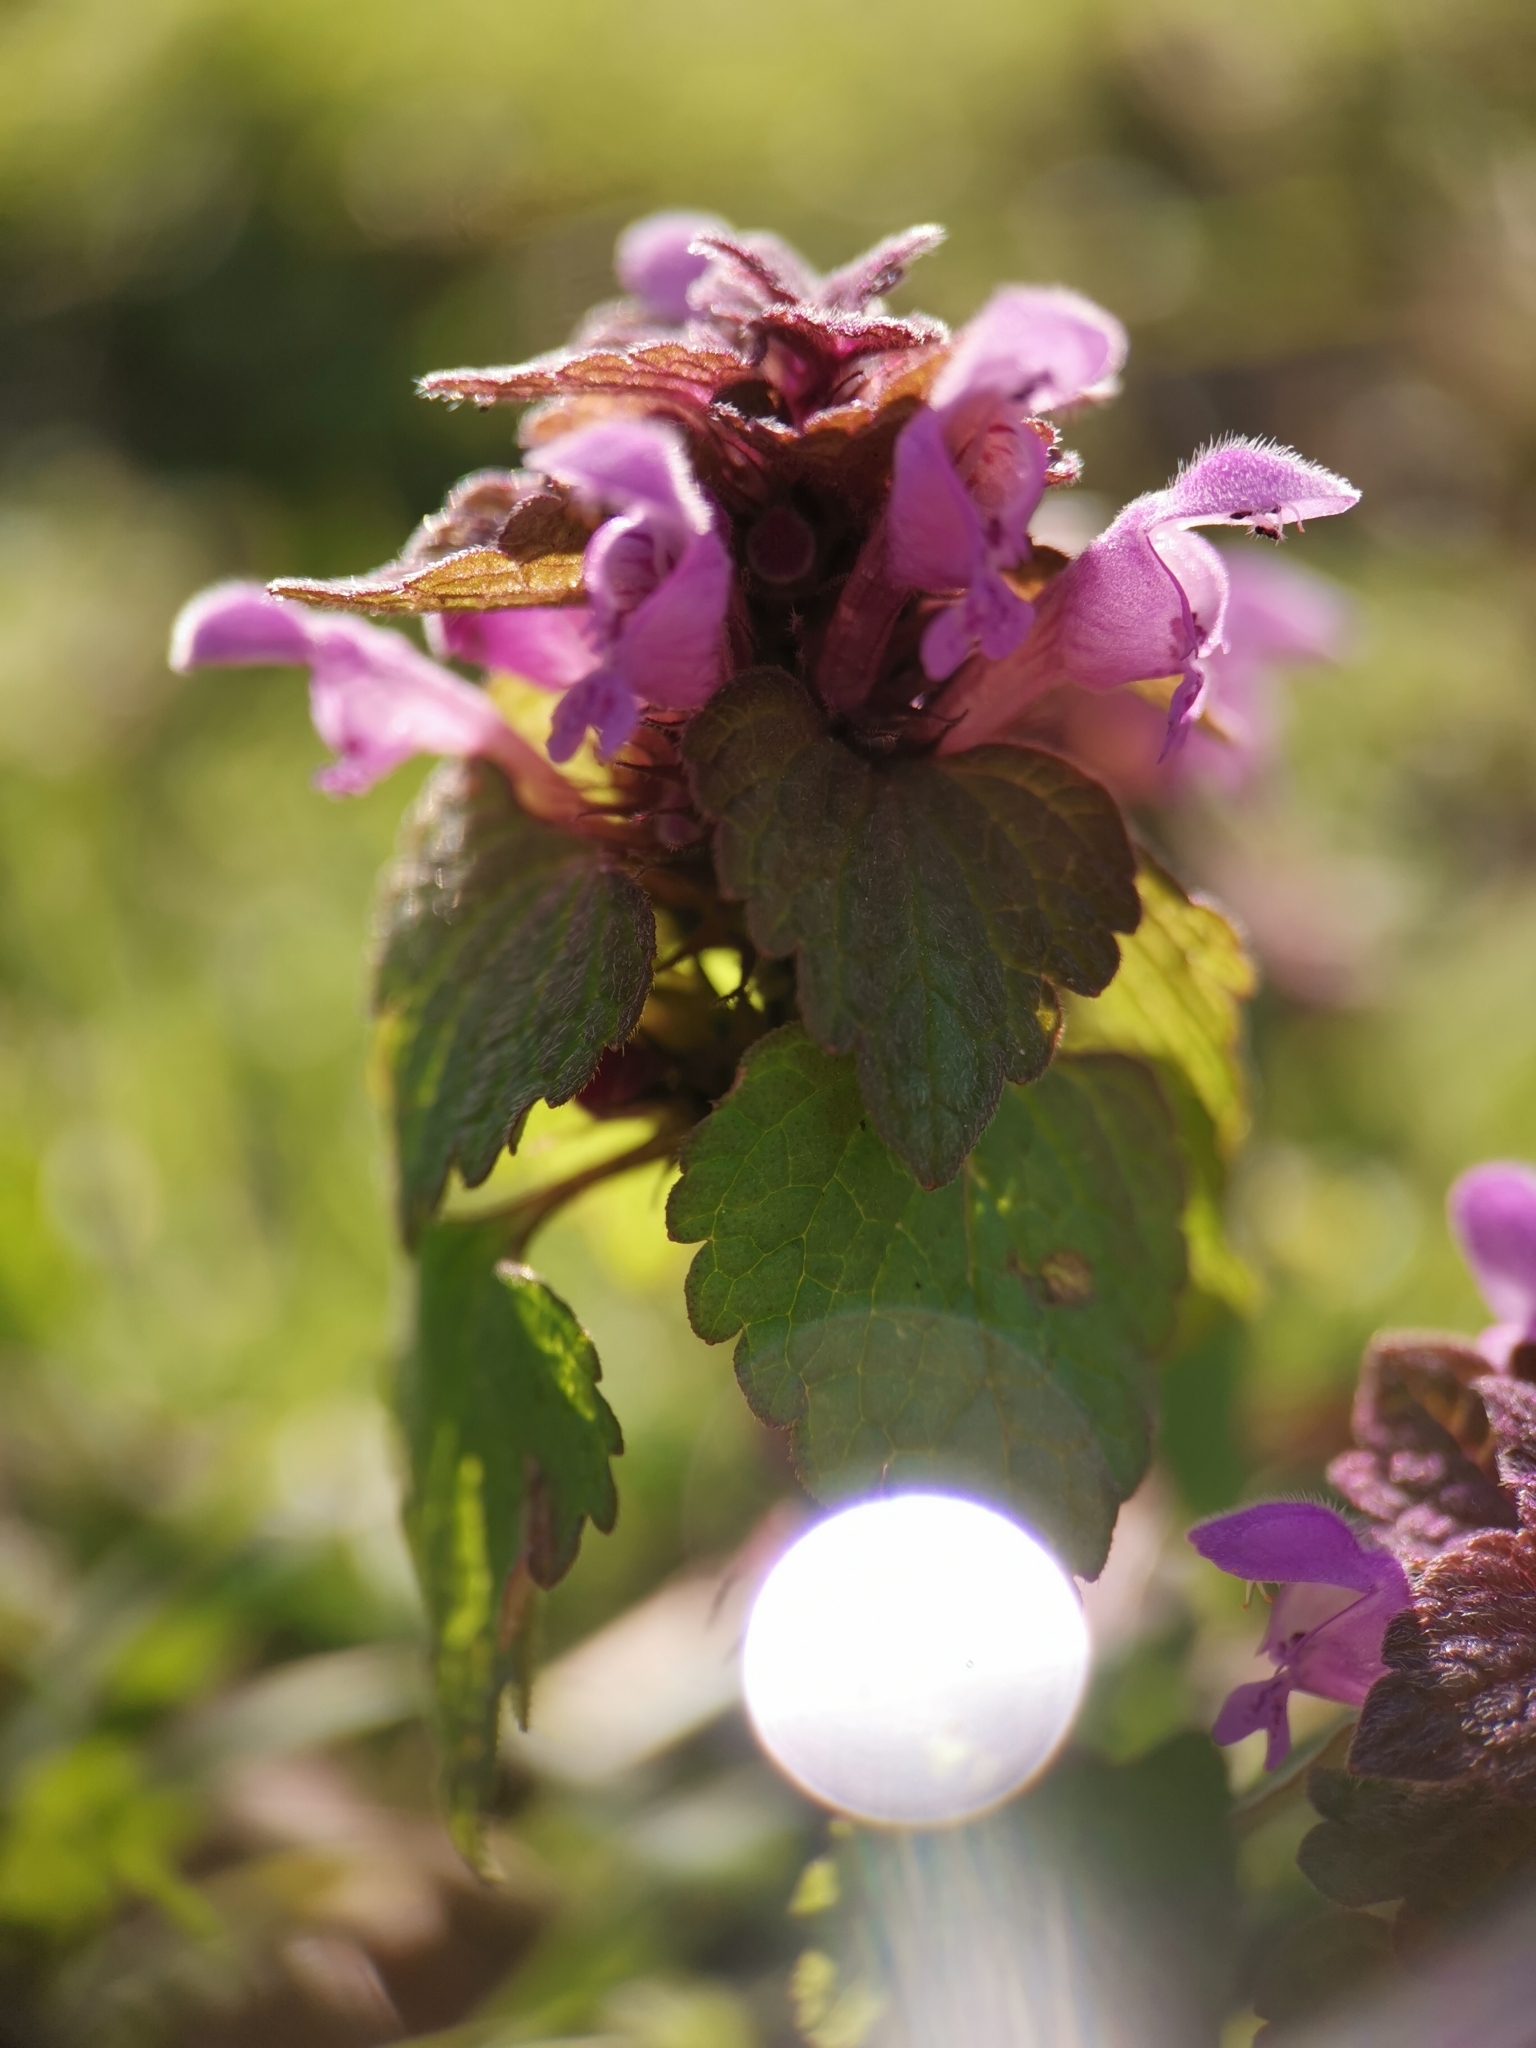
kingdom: Plantae
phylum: Tracheophyta
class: Magnoliopsida
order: Lamiales
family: Lamiaceae
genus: Lamium
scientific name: Lamium purpureum
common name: Red dead-nettle
